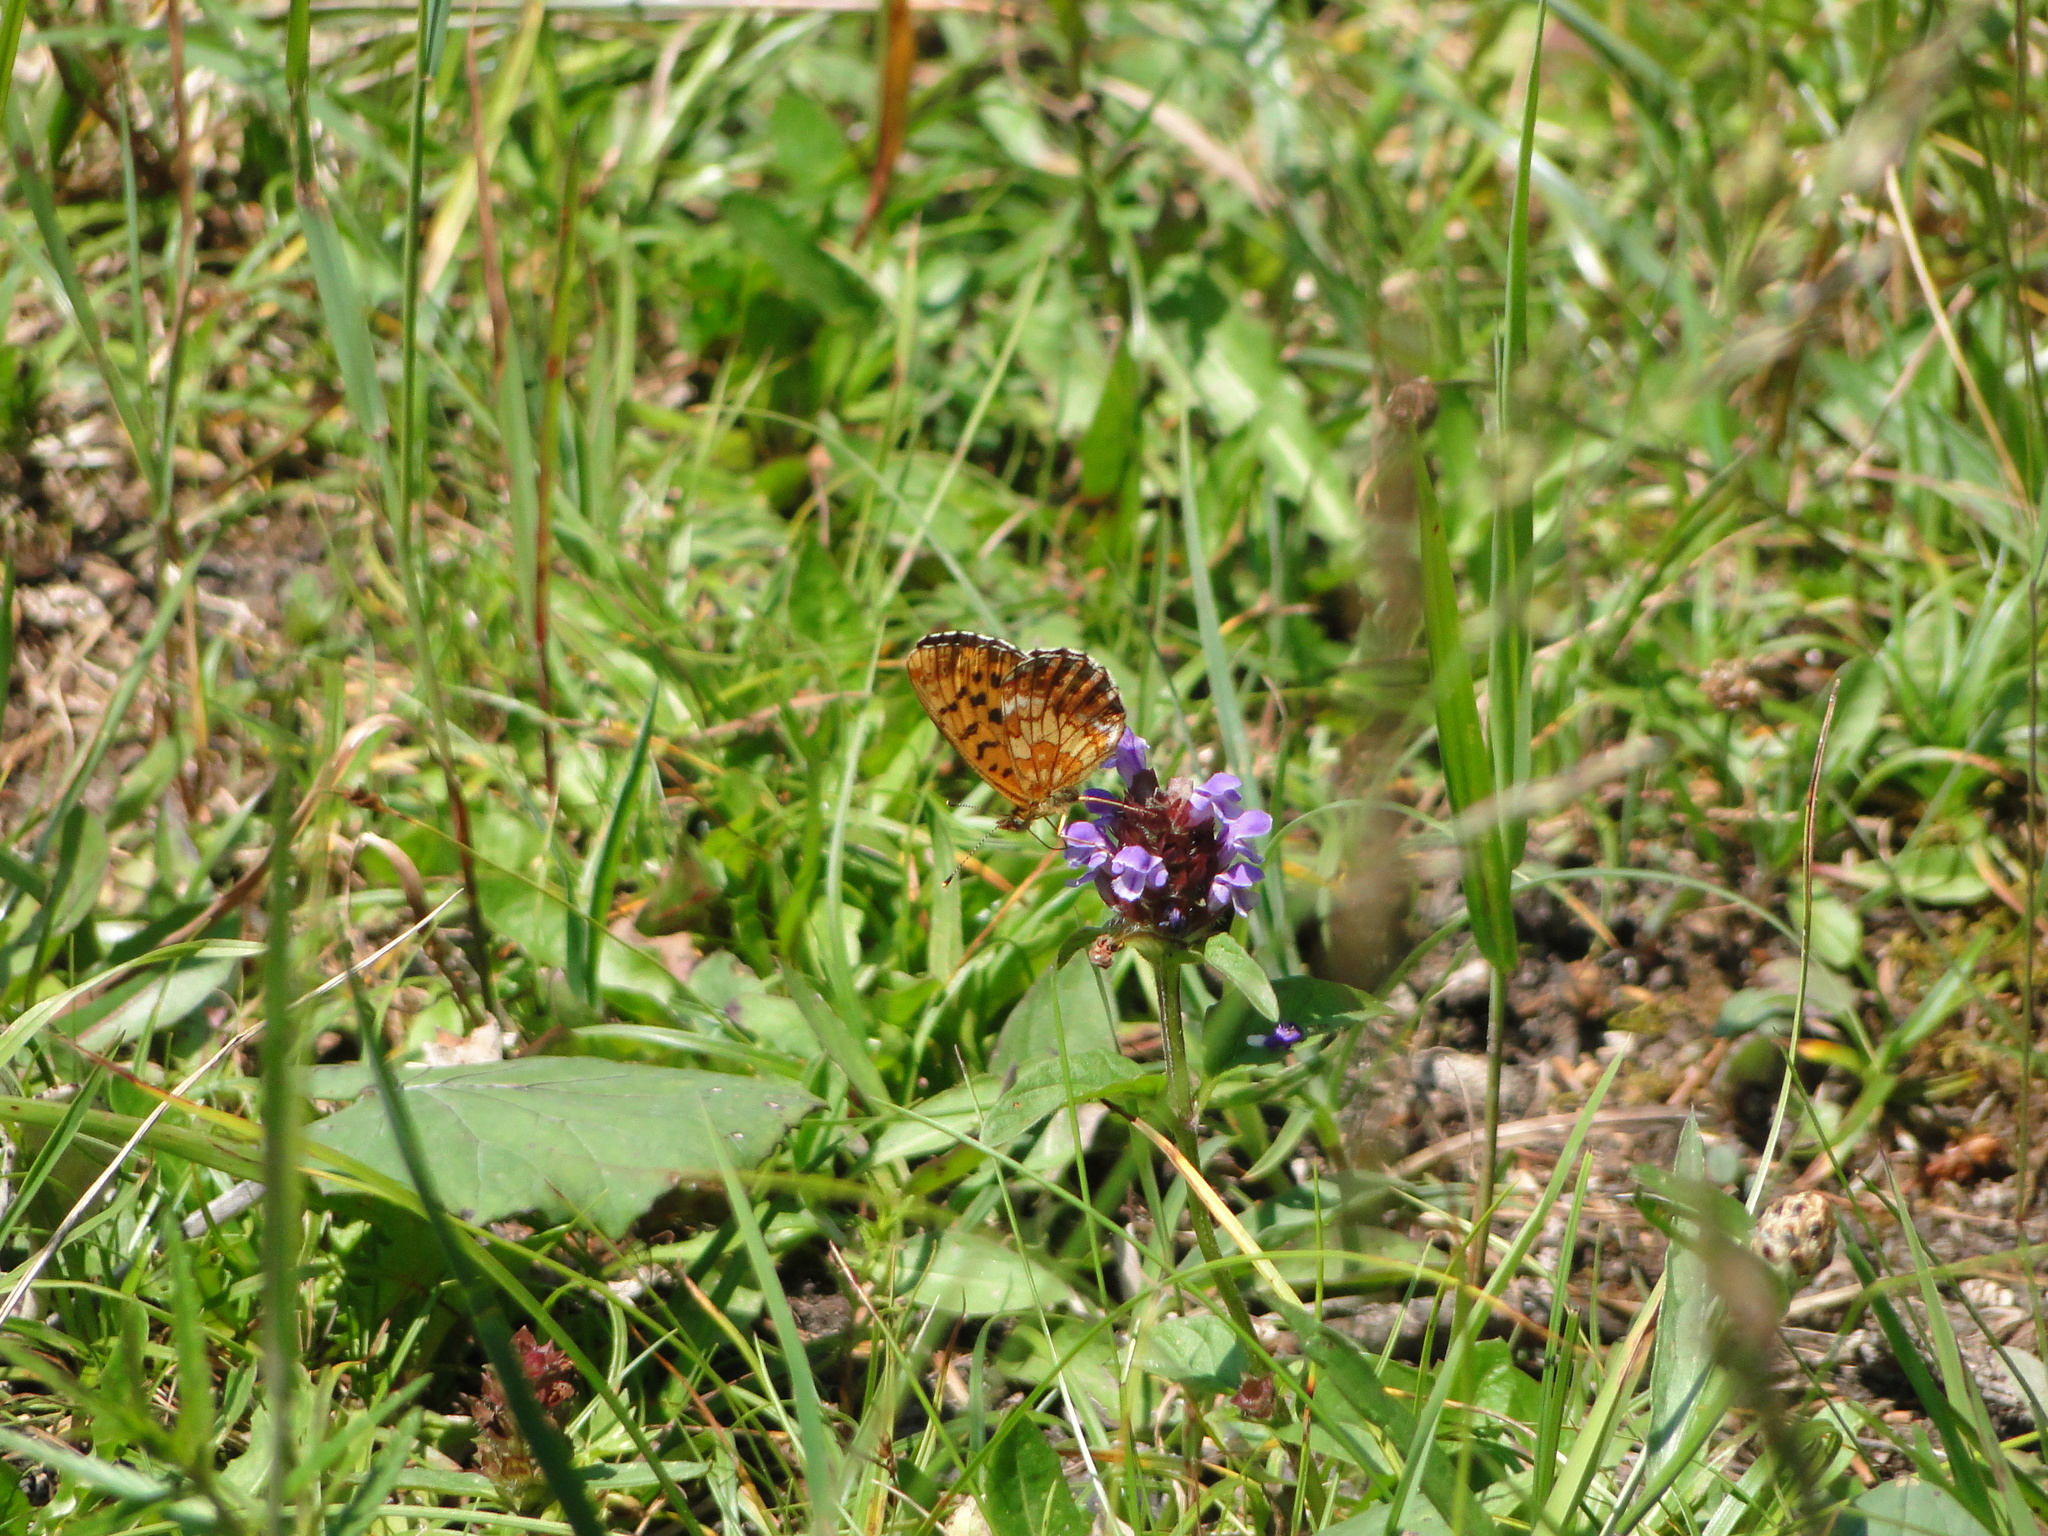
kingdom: Animalia
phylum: Arthropoda
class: Insecta
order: Lepidoptera
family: Nymphalidae
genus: Boloria
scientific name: Boloria thore
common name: Thor's fritillary
